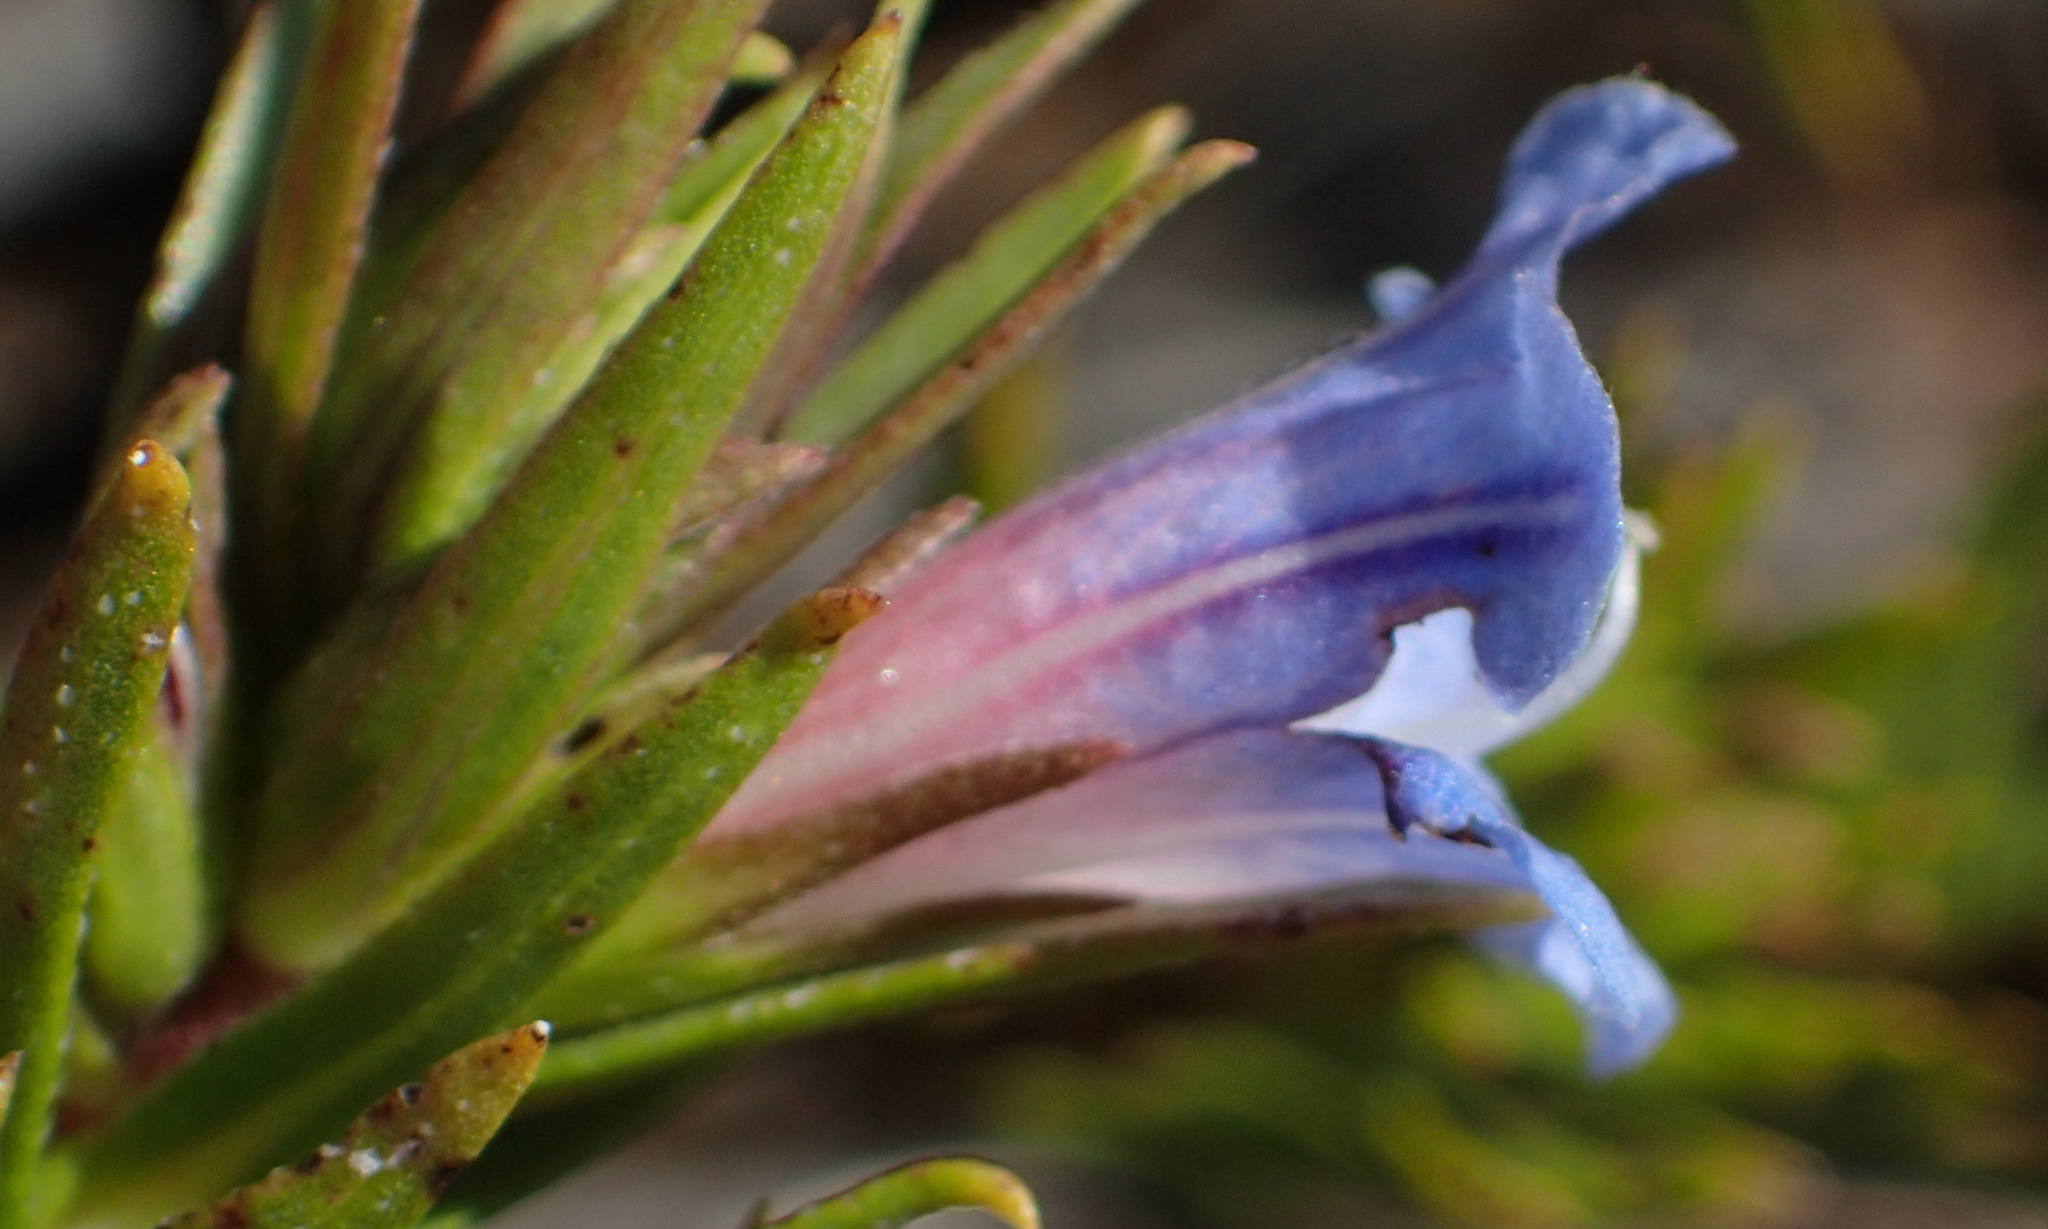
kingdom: Plantae
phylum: Tracheophyta
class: Magnoliopsida
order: Boraginales
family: Boraginaceae
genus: Lobostemon
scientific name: Lobostemon fruticosus
